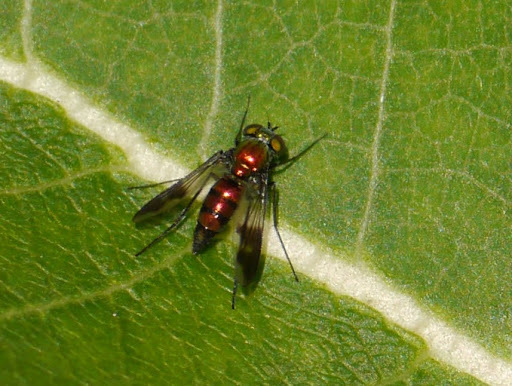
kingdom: Animalia
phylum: Arthropoda
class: Insecta
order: Diptera
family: Dolichopodidae
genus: Condylostylus
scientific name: Condylostylus patibulatus
